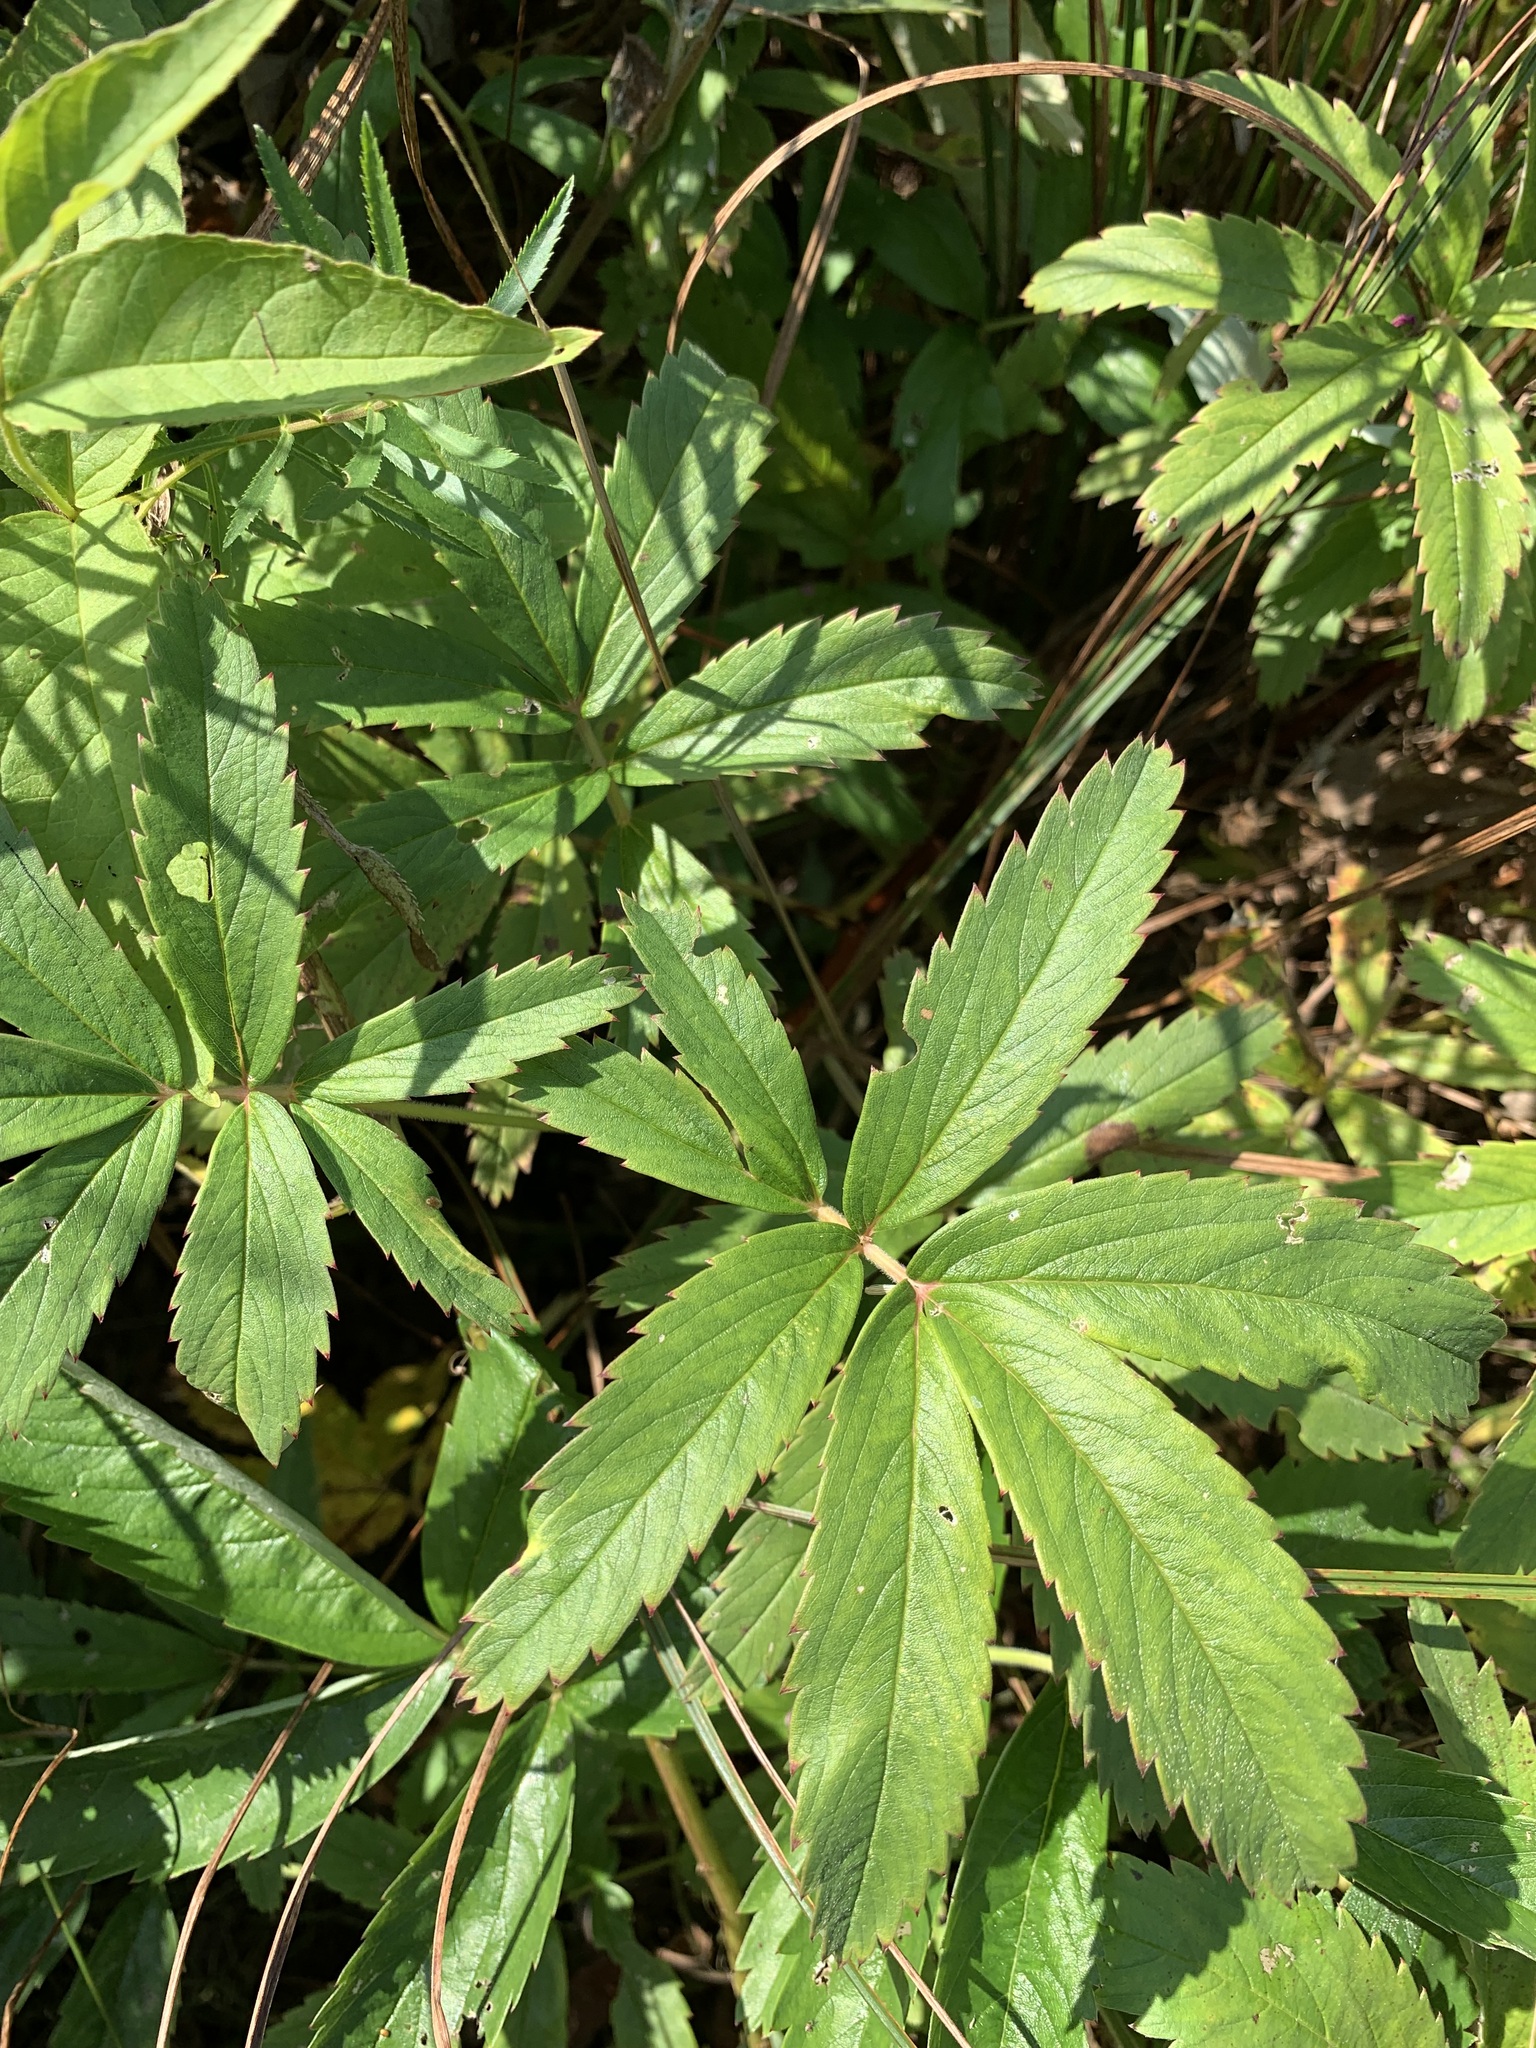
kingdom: Plantae
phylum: Tracheophyta
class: Magnoliopsida
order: Rosales
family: Rosaceae
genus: Comarum
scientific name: Comarum palustre
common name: Marsh cinquefoil
